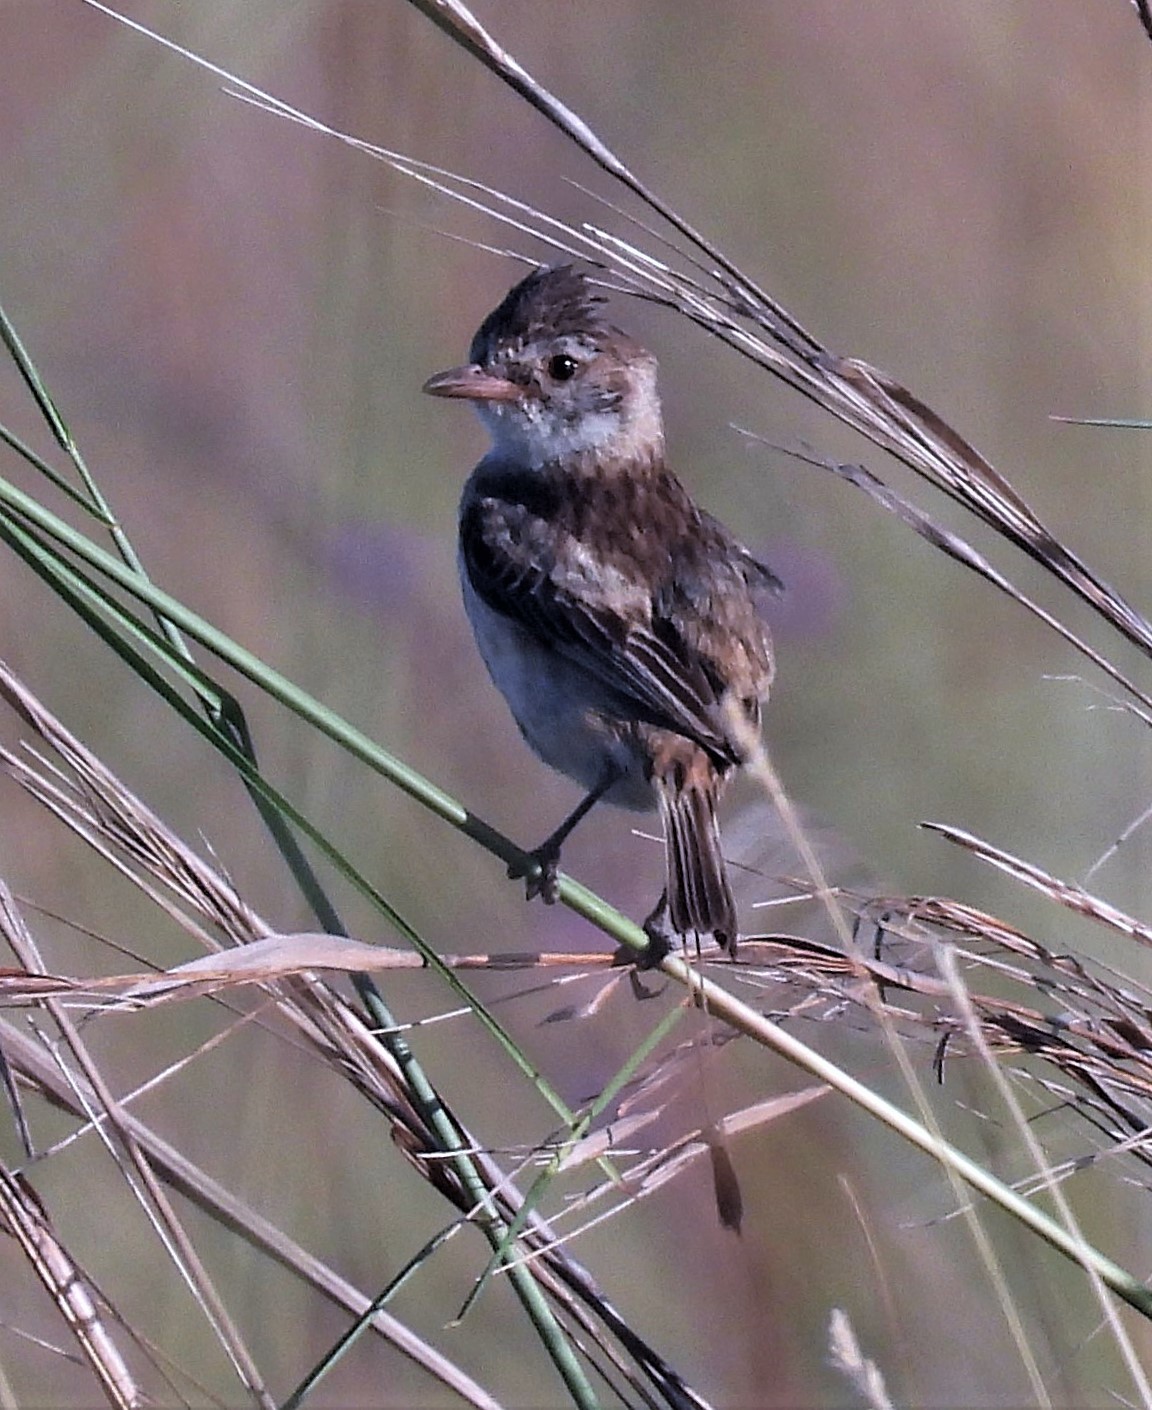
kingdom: Animalia
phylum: Chordata
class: Aves
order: Passeriformes
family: Tyrannidae
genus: Alectrurus
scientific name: Alectrurus risora
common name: Strange-tailed tyrant
